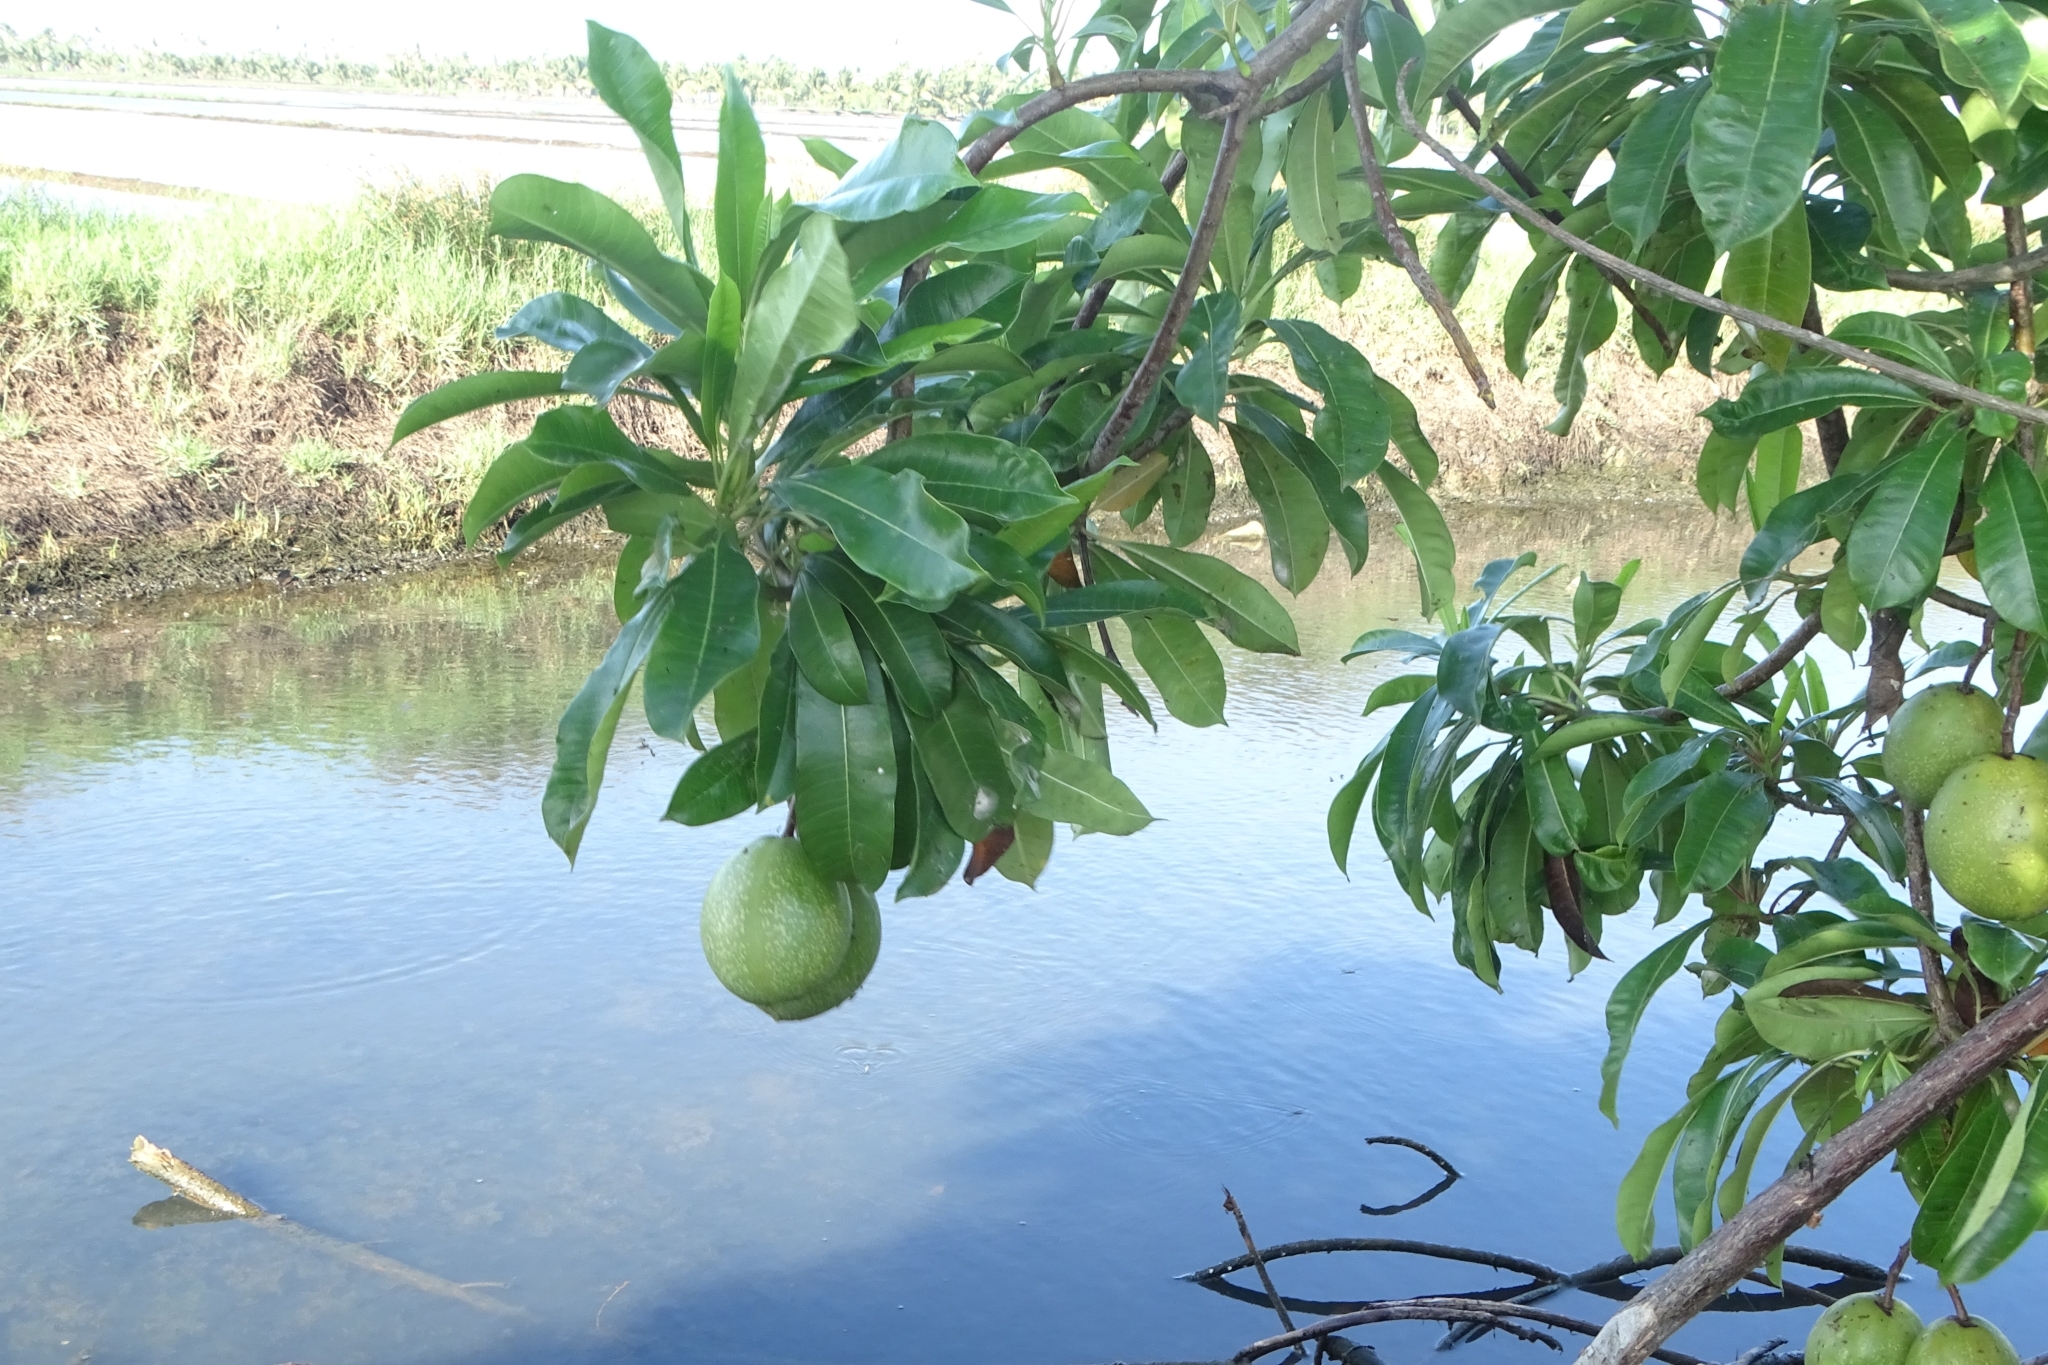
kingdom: Plantae
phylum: Tracheophyta
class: Magnoliopsida
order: Gentianales
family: Apocynaceae
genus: Cerbera
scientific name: Cerbera odollam
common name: Pong-pong
